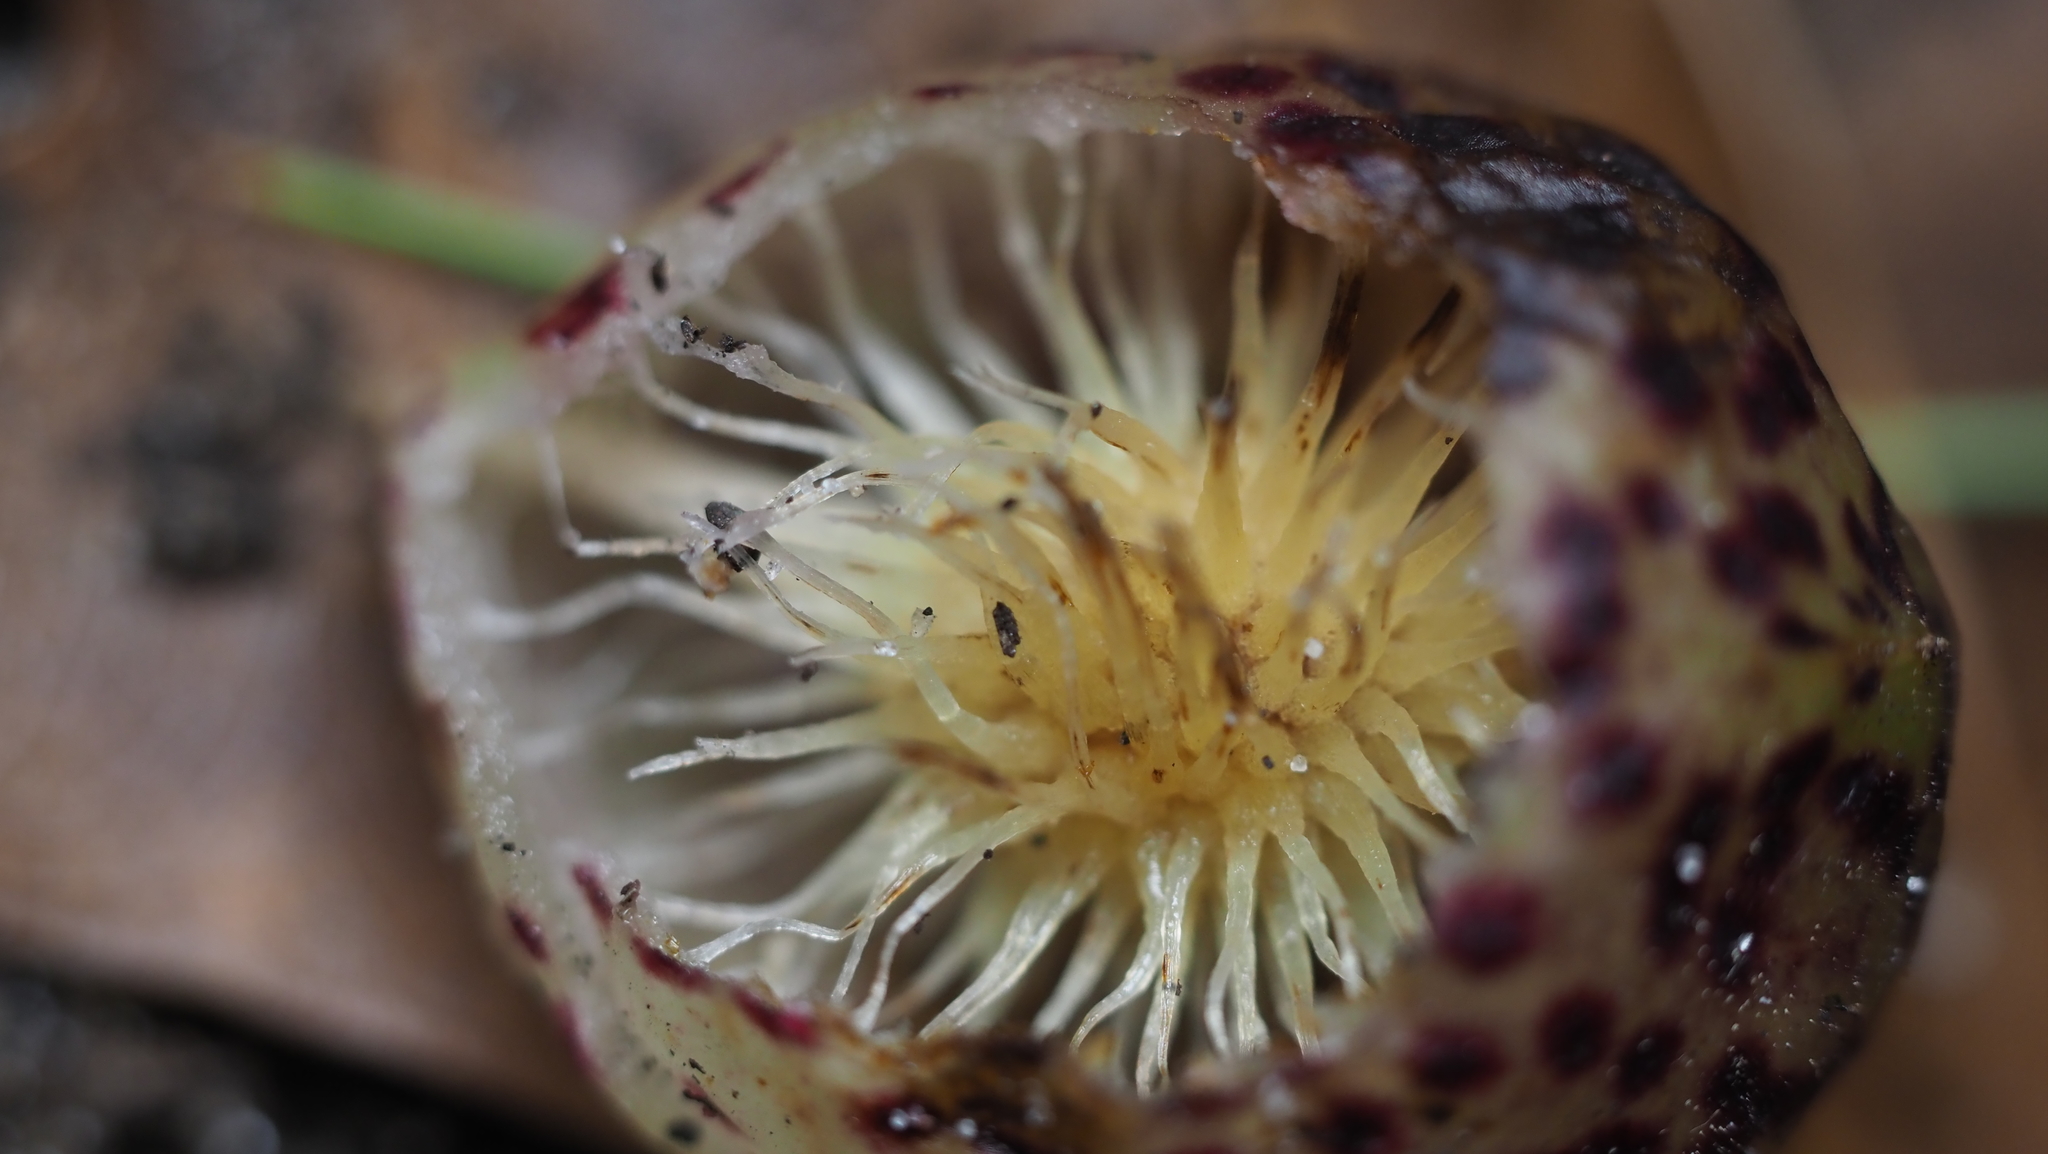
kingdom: Animalia
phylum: Arthropoda
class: Insecta
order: Hymenoptera
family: Cynipidae
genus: Amphibolips
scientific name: Amphibolips
